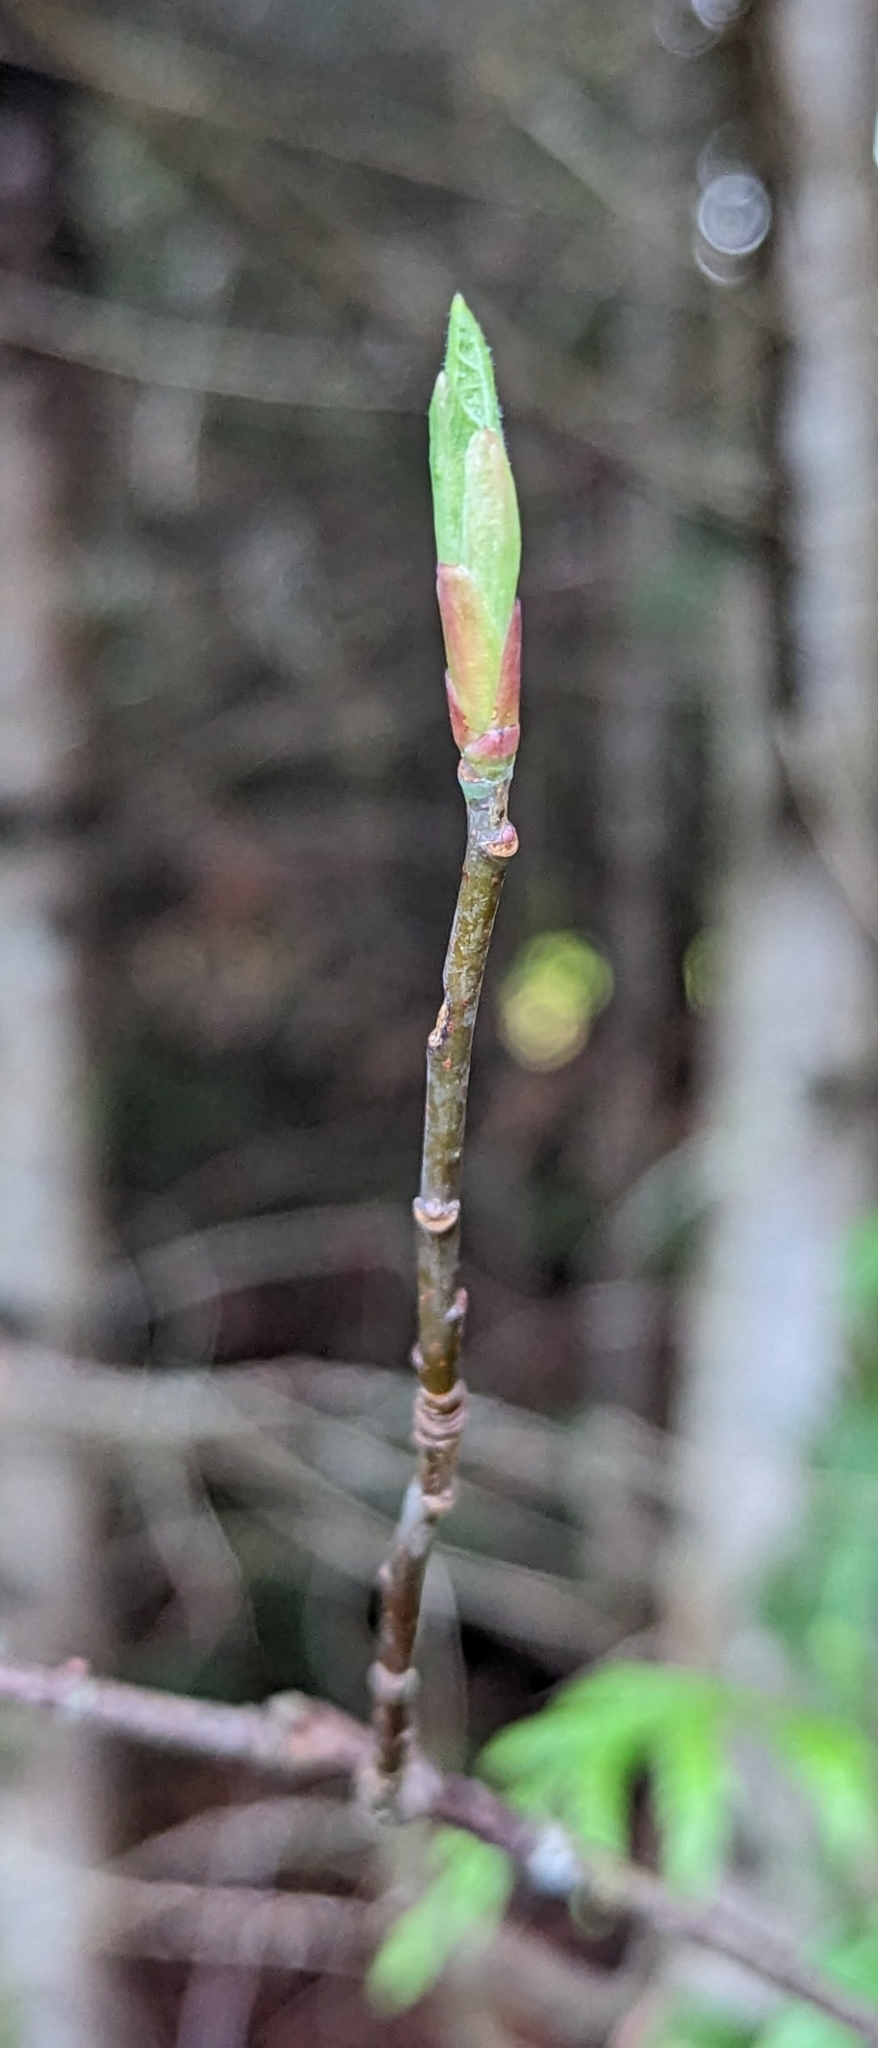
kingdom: Plantae
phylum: Tracheophyta
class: Magnoliopsida
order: Rosales
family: Rosaceae
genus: Oemleria
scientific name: Oemleria cerasiformis
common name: Osoberry
